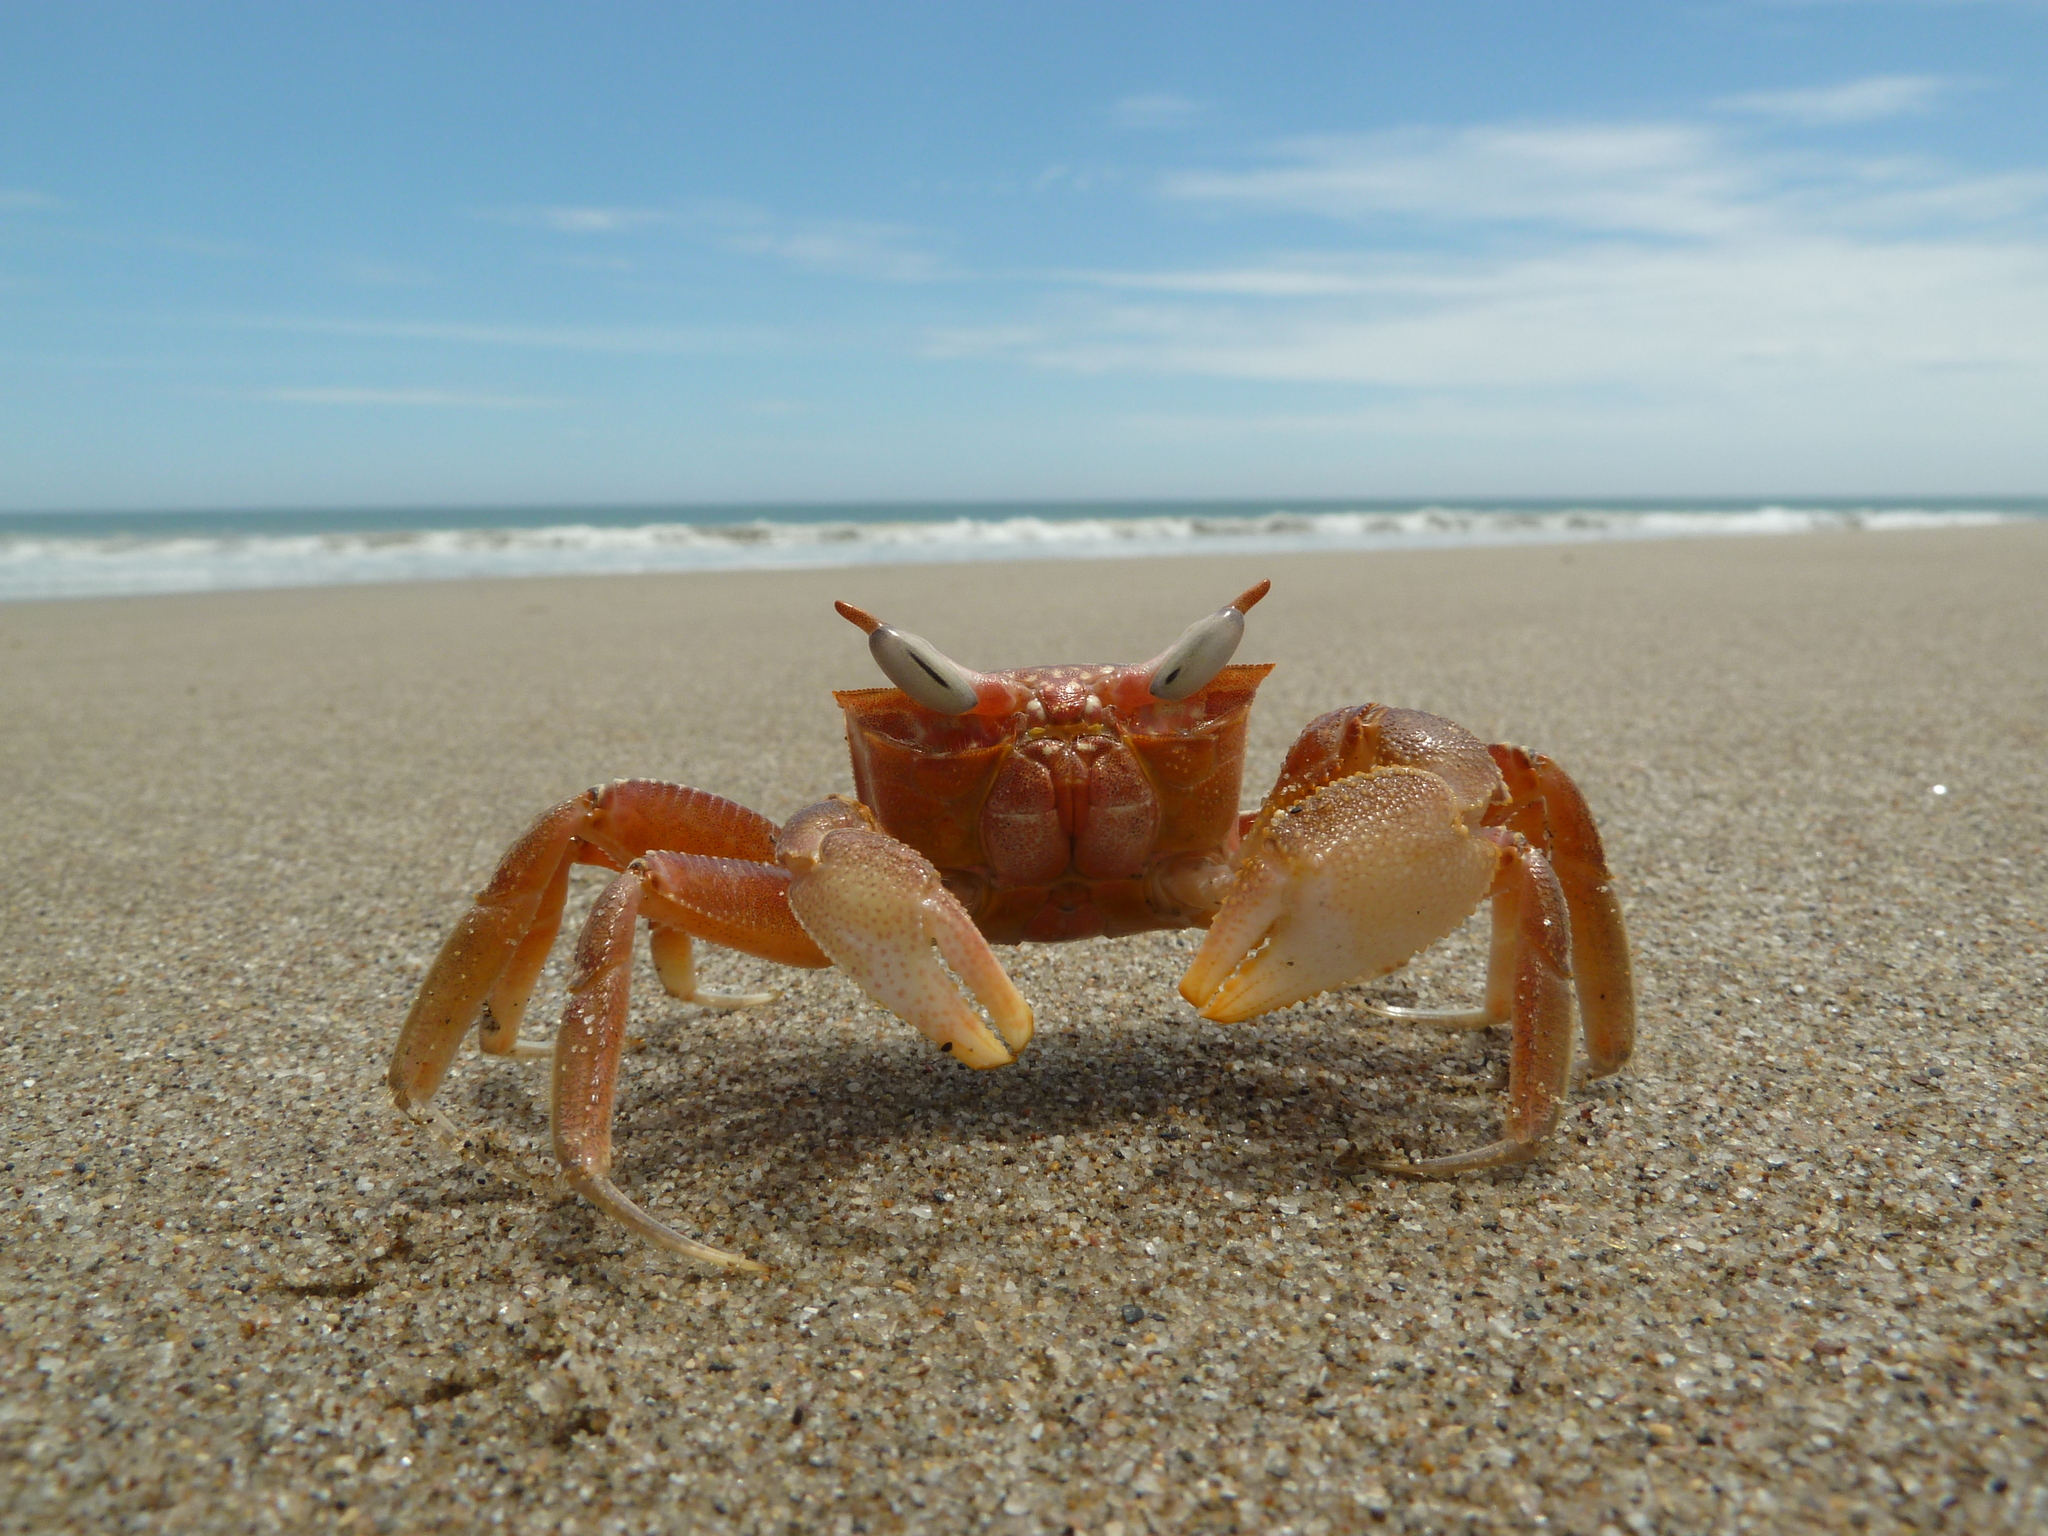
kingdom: Animalia
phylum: Arthropoda
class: Malacostraca
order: Decapoda
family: Ocypodidae
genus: Ocypode
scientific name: Ocypode gaudichaudii
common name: Pacific ghost crab
